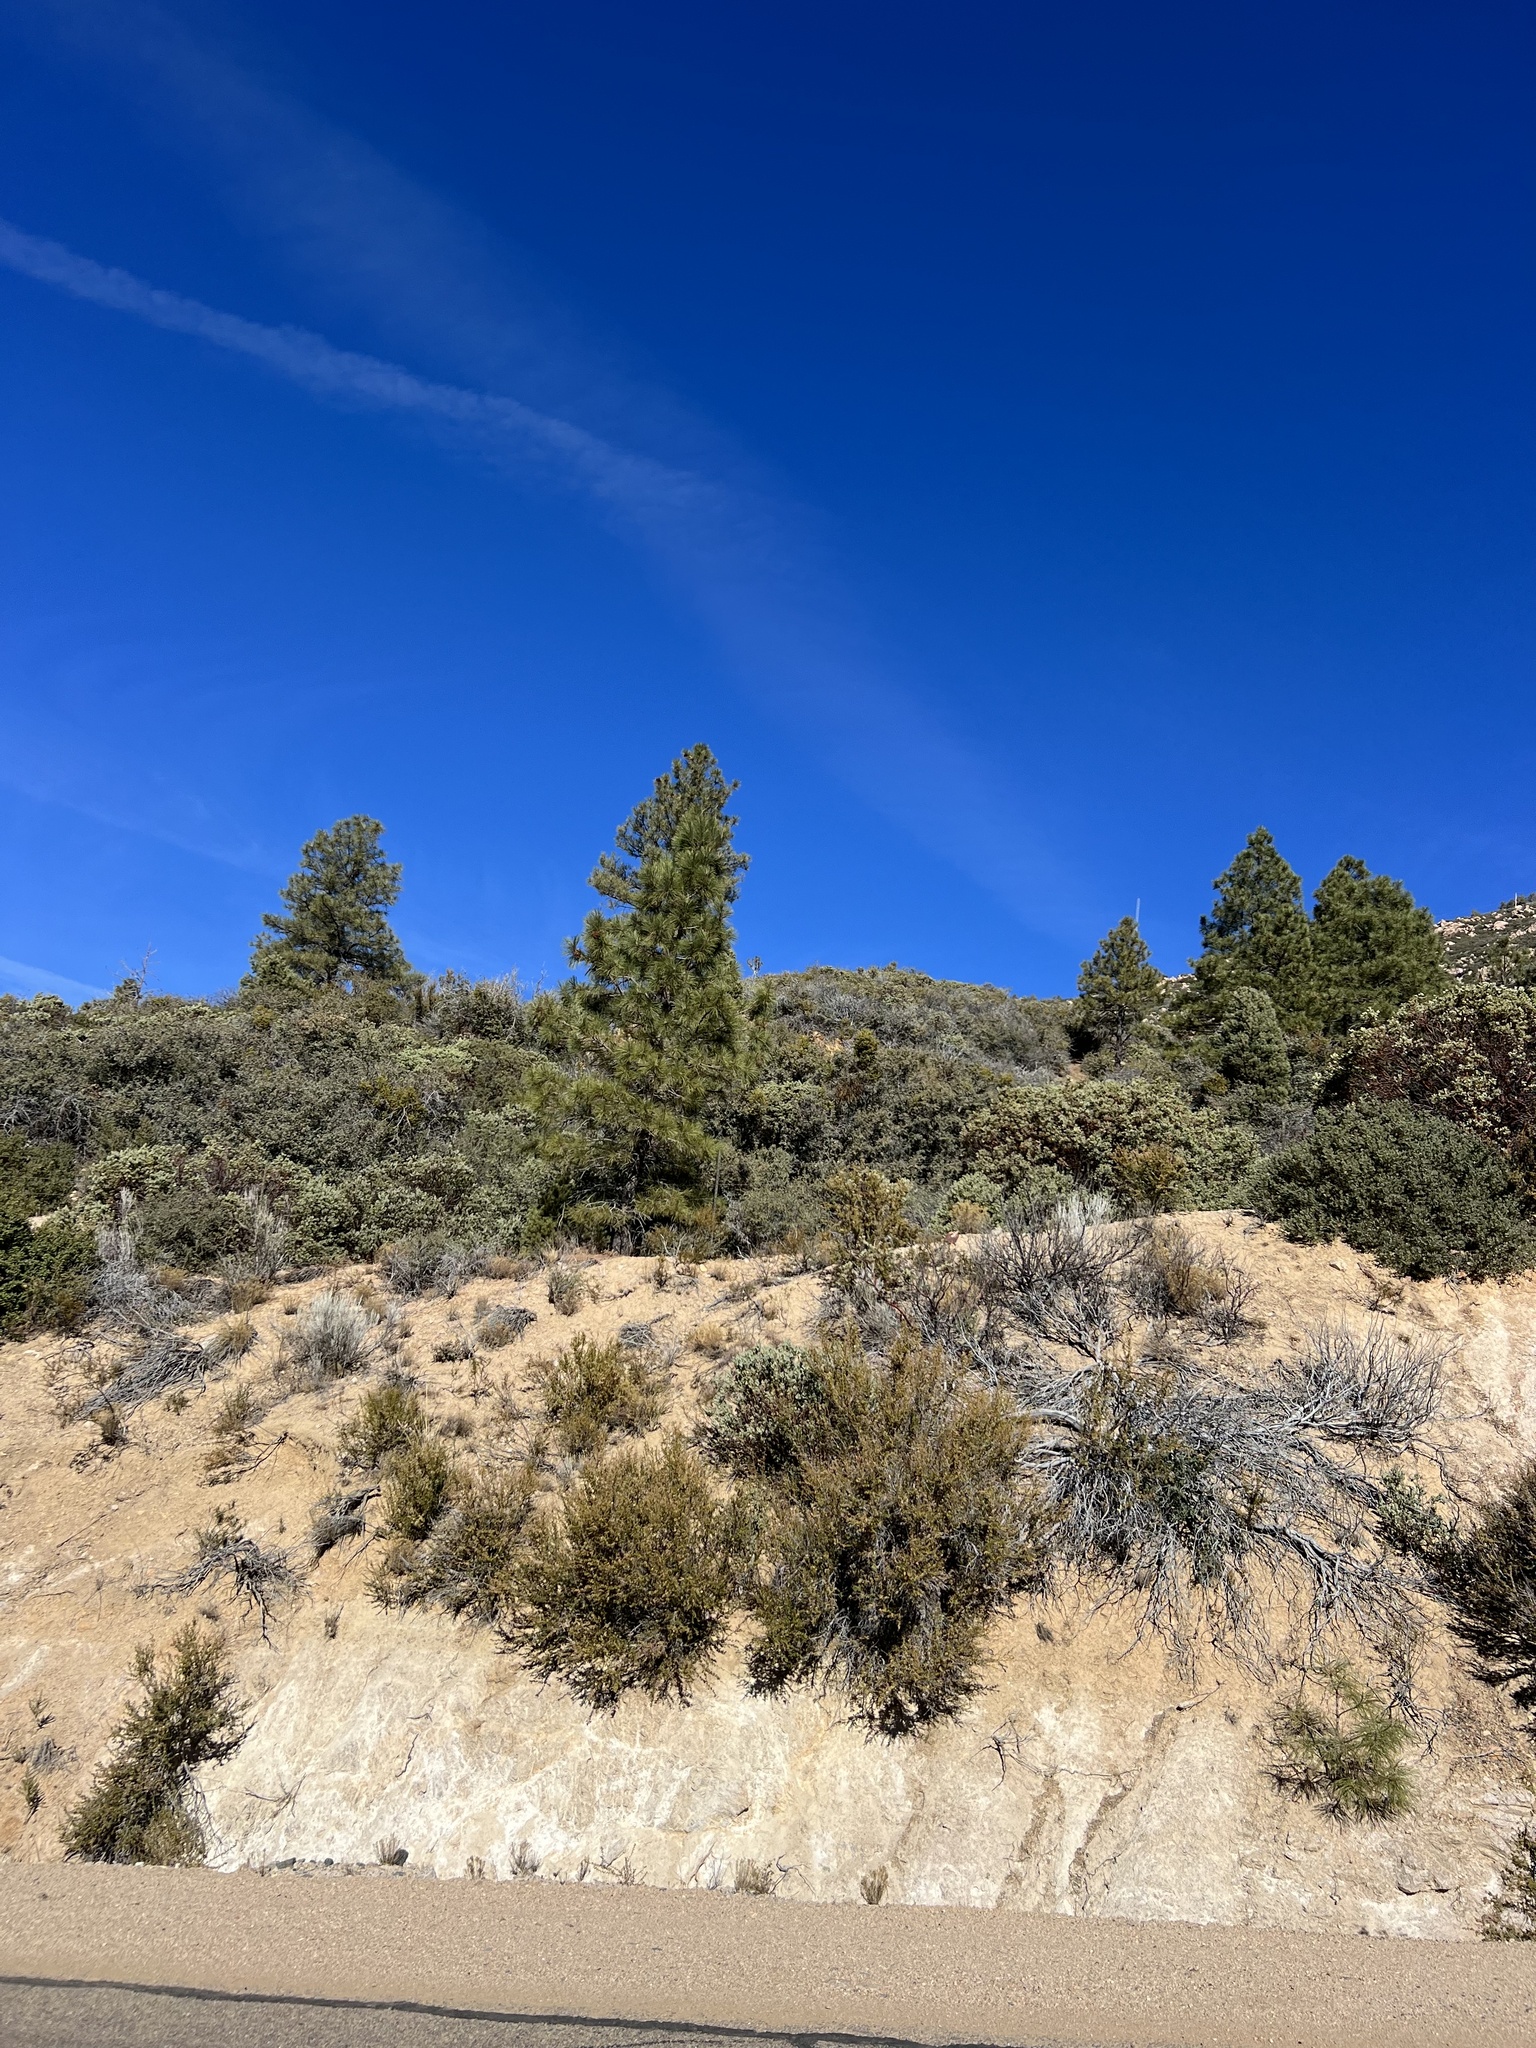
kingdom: Plantae
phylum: Tracheophyta
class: Pinopsida
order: Pinales
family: Pinaceae
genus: Pinus
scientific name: Pinus ponderosa
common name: Western yellow-pine
